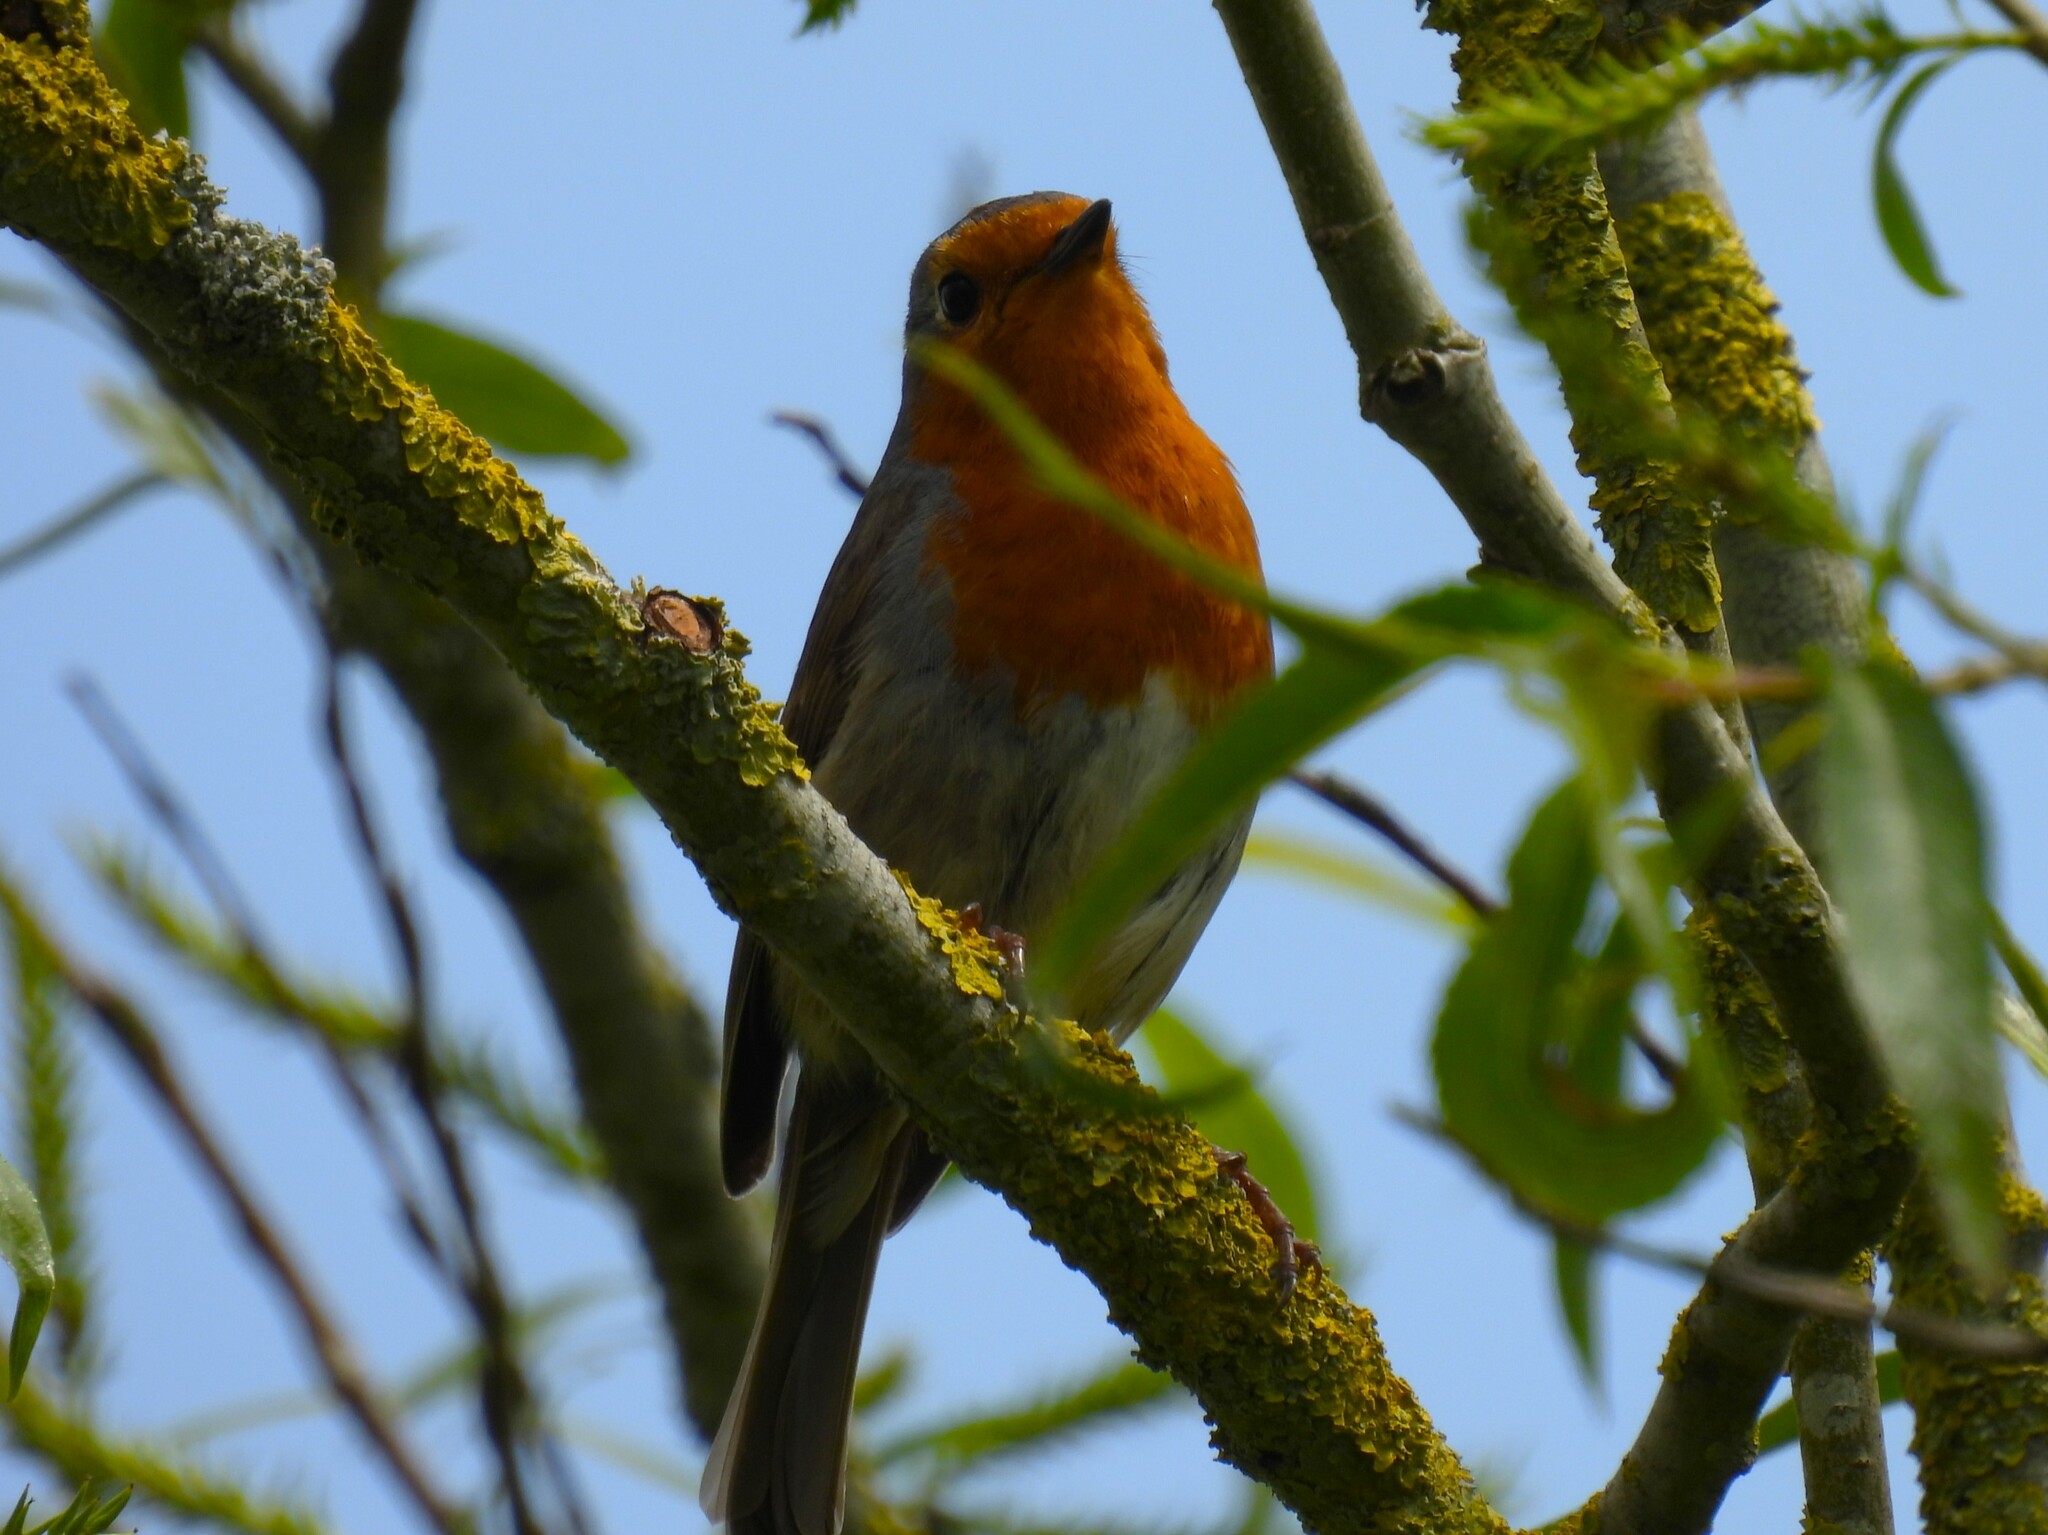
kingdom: Animalia
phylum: Chordata
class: Aves
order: Passeriformes
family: Muscicapidae
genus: Erithacus
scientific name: Erithacus rubecula
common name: European robin
